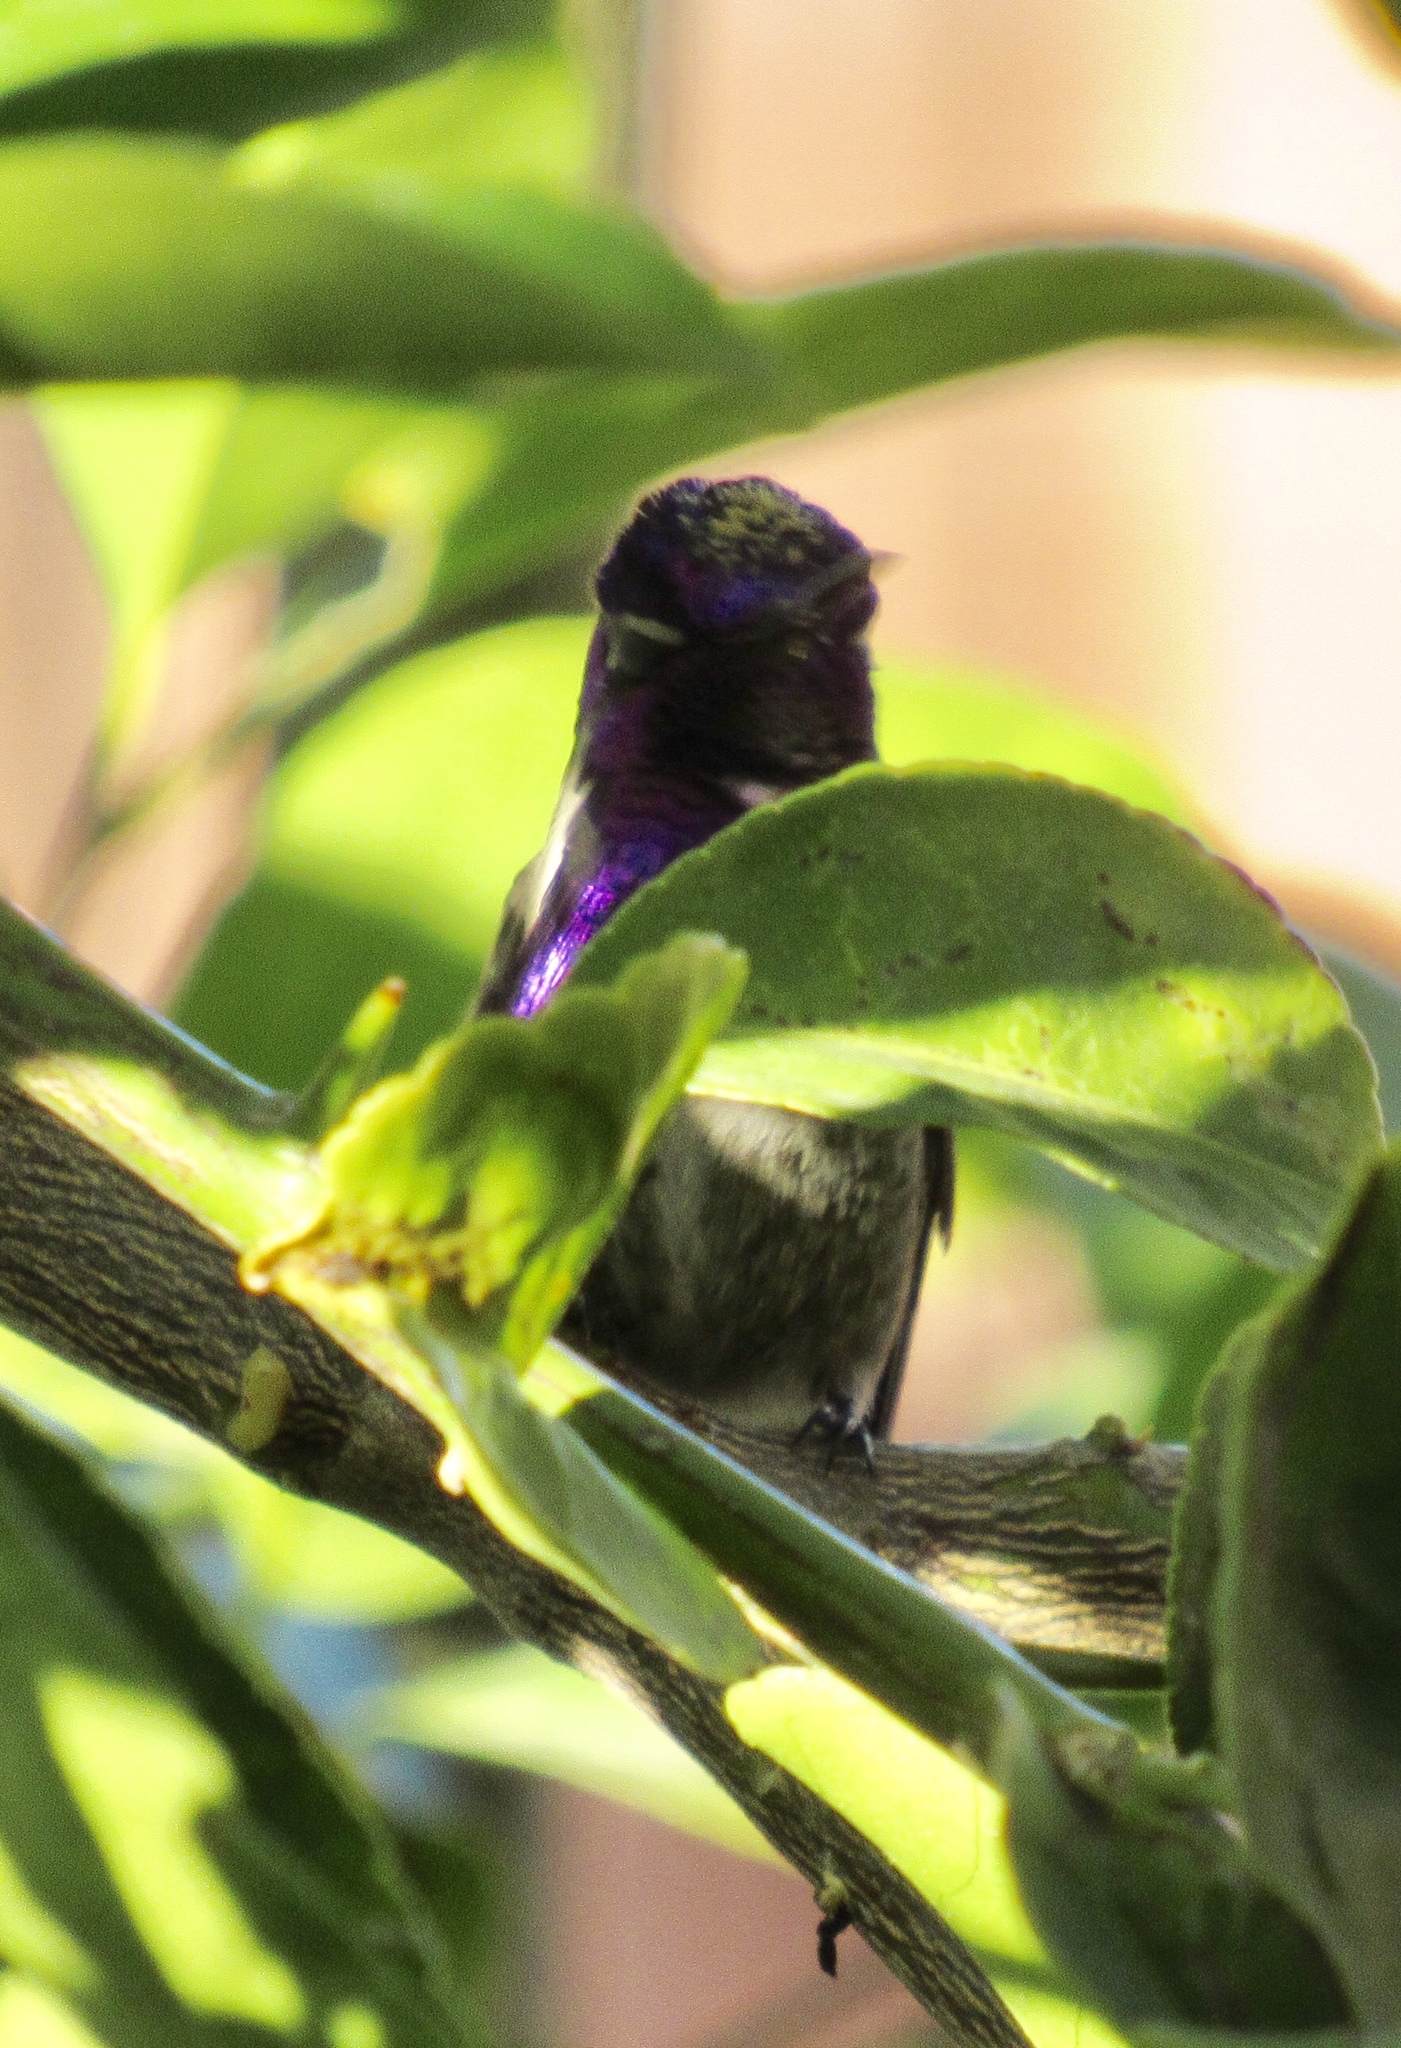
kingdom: Animalia
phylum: Chordata
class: Aves
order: Apodiformes
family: Trochilidae
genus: Calypte
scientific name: Calypte costae
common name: Costa's hummingbird
